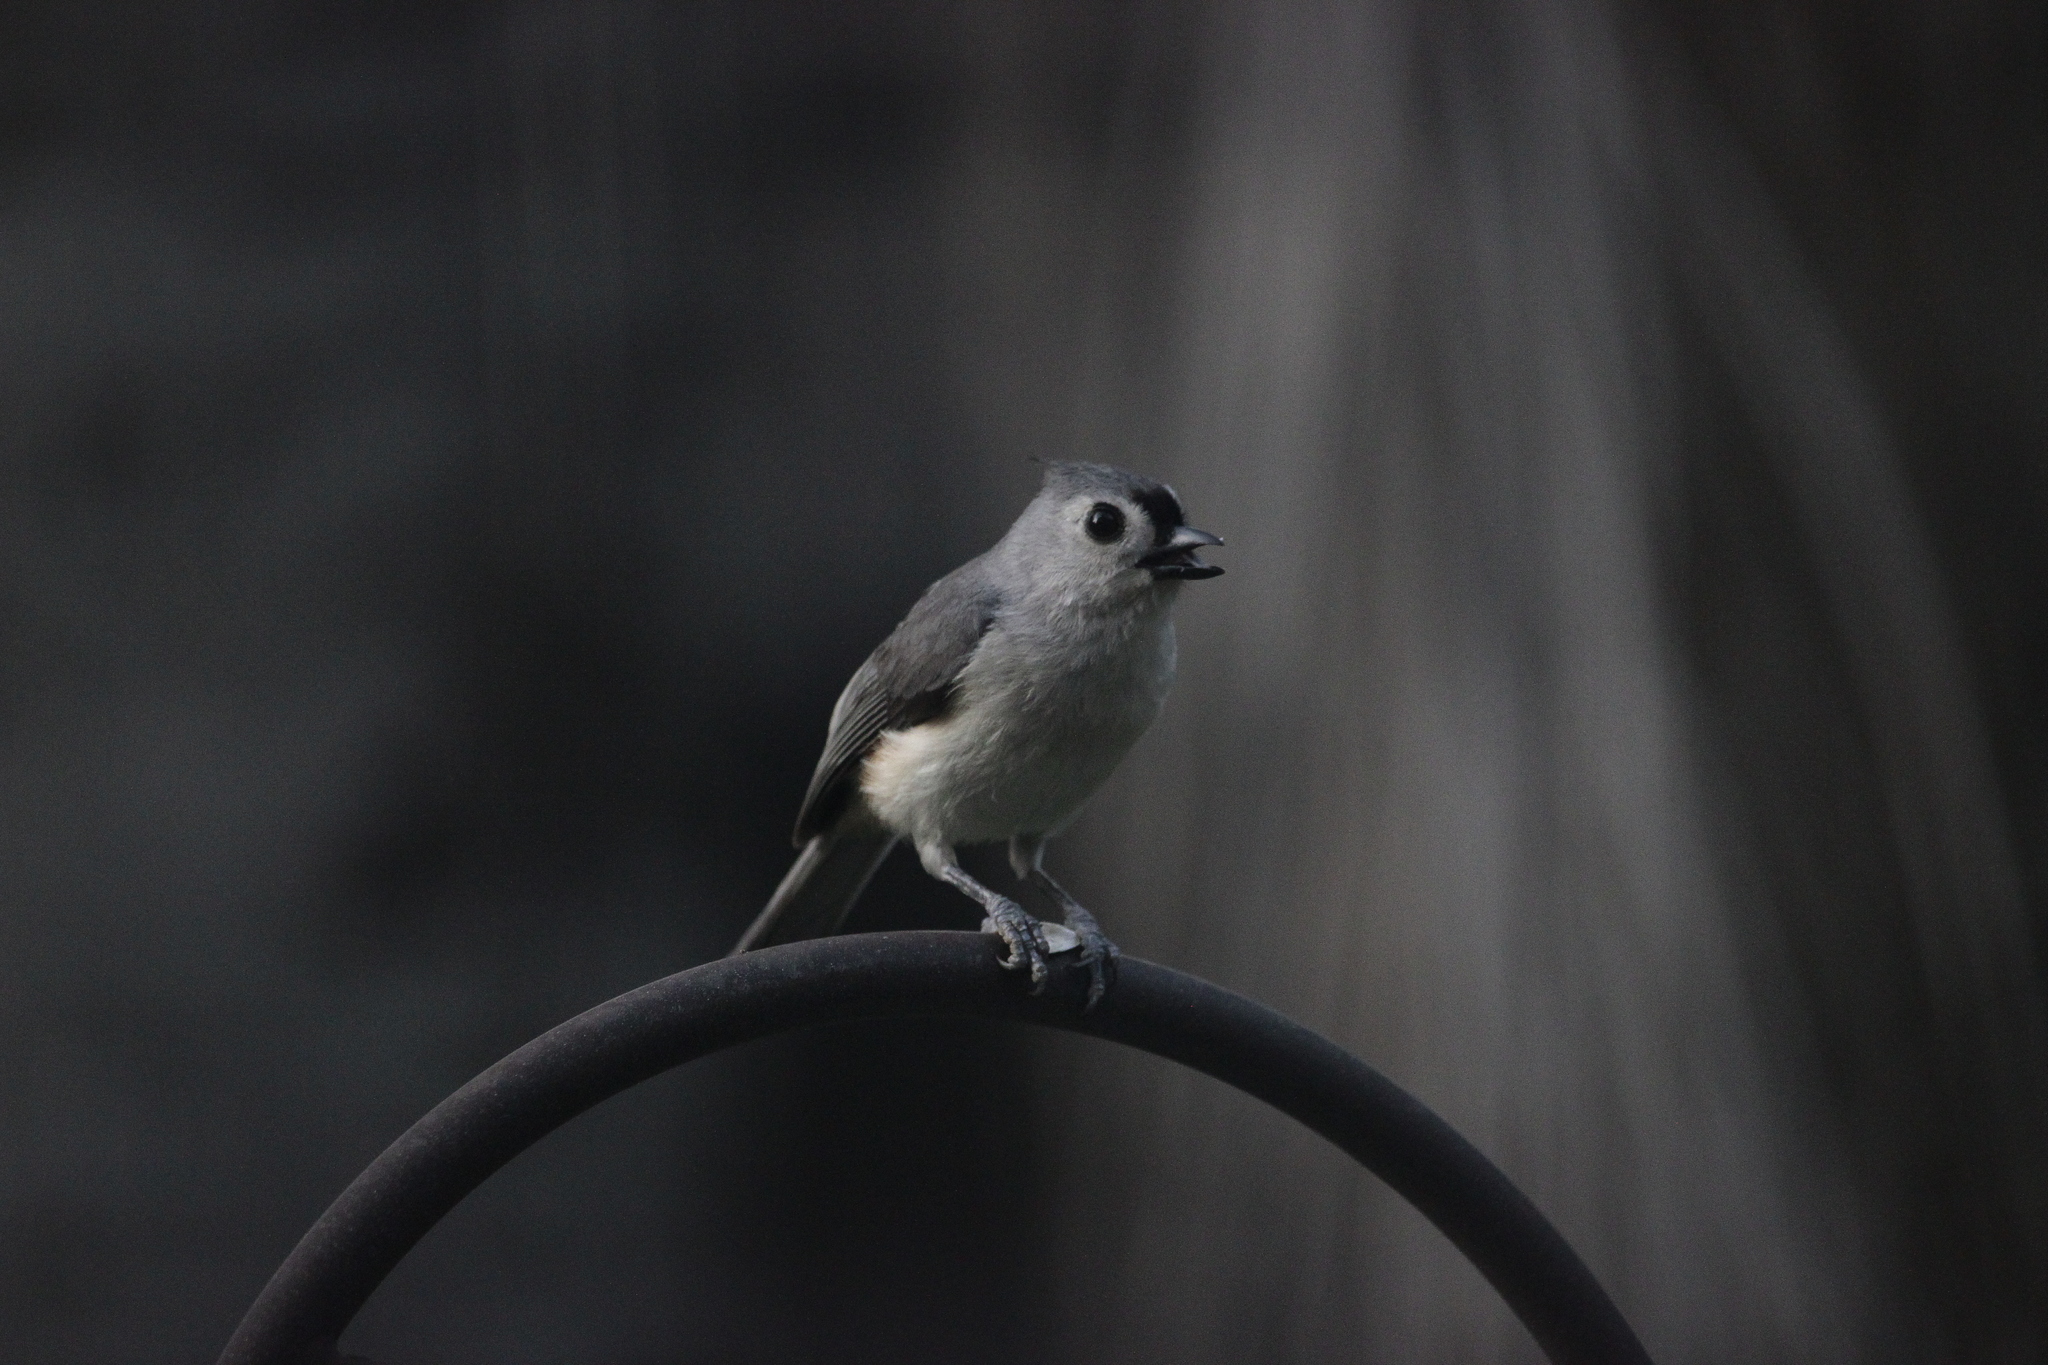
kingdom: Animalia
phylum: Chordata
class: Aves
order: Passeriformes
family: Paridae
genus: Baeolophus
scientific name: Baeolophus bicolor
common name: Tufted titmouse
